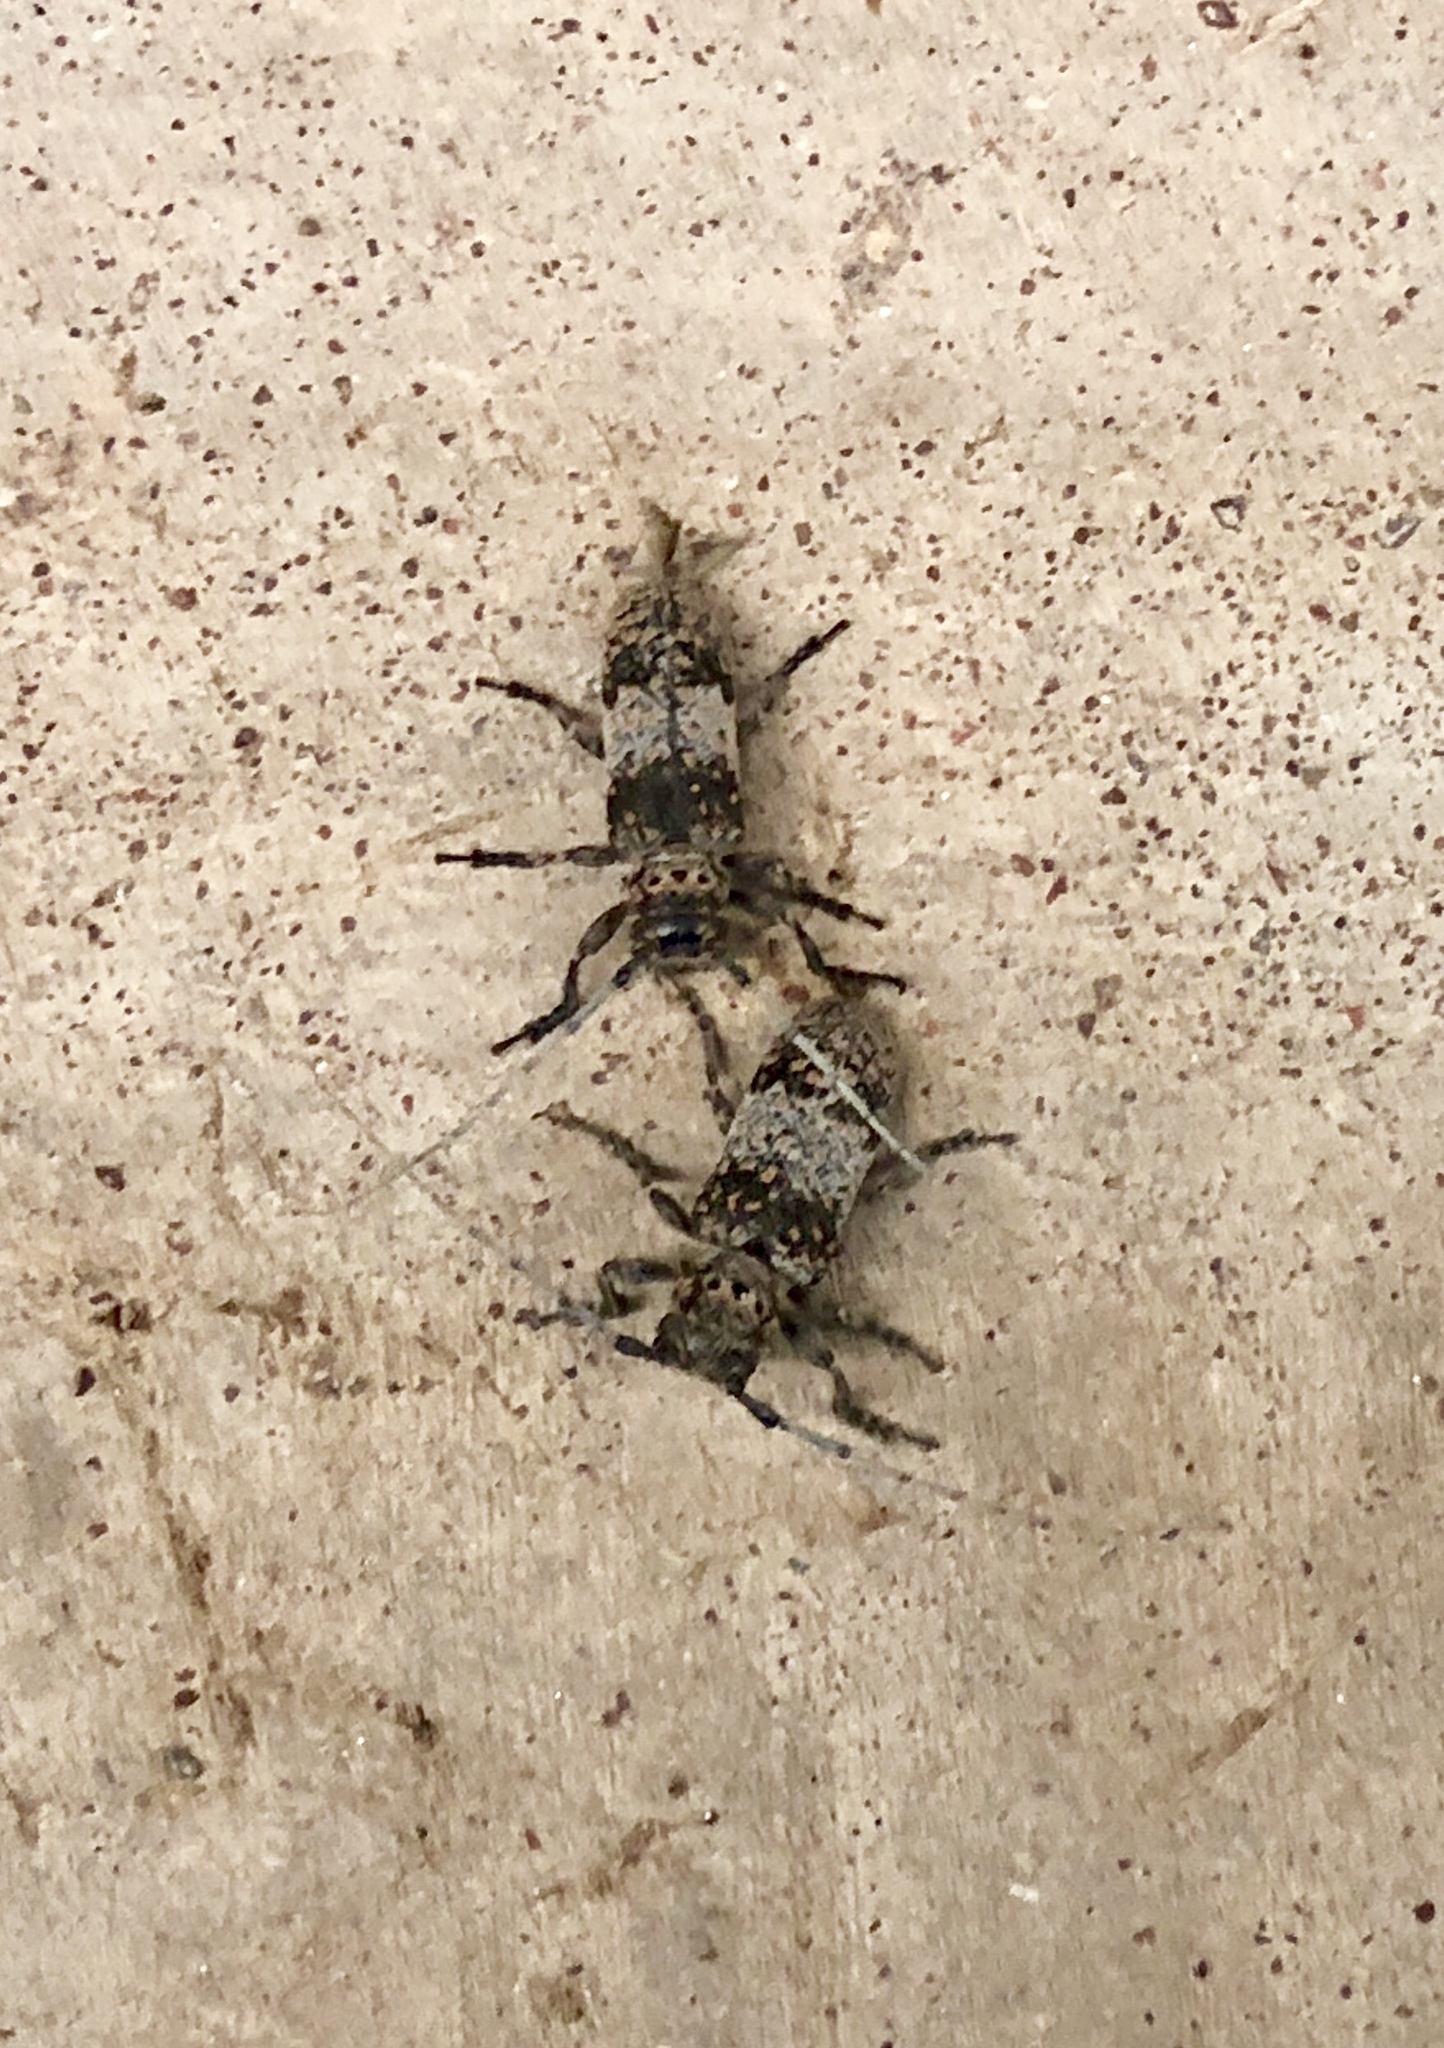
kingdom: Animalia
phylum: Arthropoda
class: Insecta
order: Coleoptera
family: Cerambycidae
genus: Oncideres
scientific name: Oncideres rhodosticta
